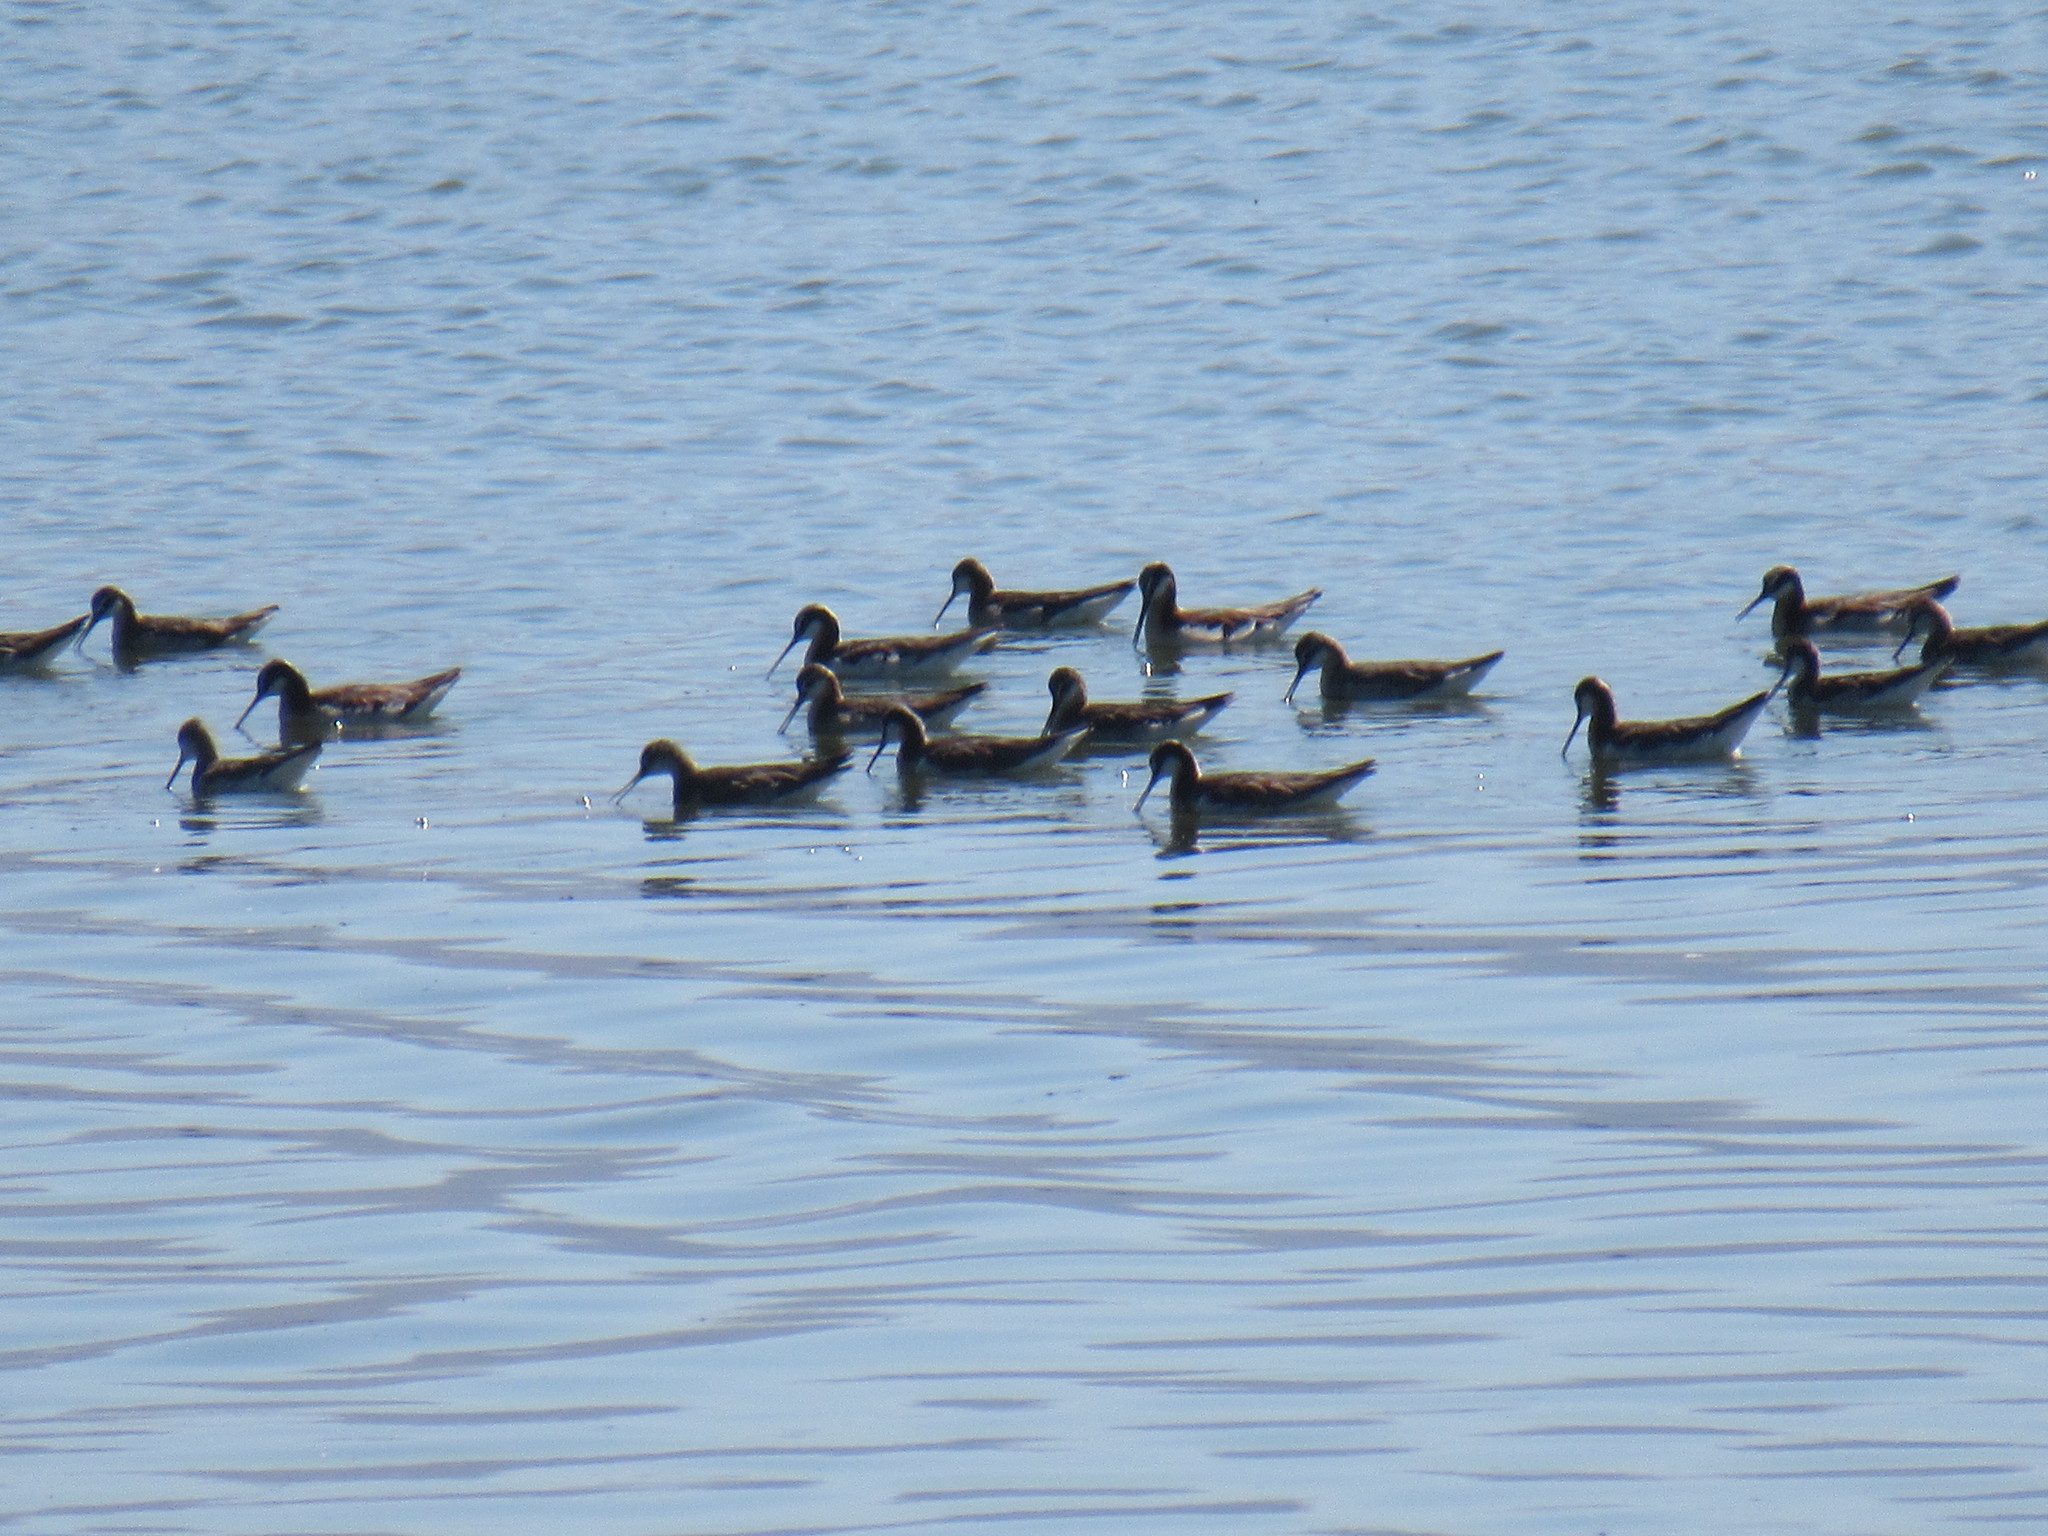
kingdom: Animalia
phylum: Chordata
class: Aves
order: Charadriiformes
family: Scolopacidae
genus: Phalaropus
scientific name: Phalaropus tricolor
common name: Wilson's phalarope
